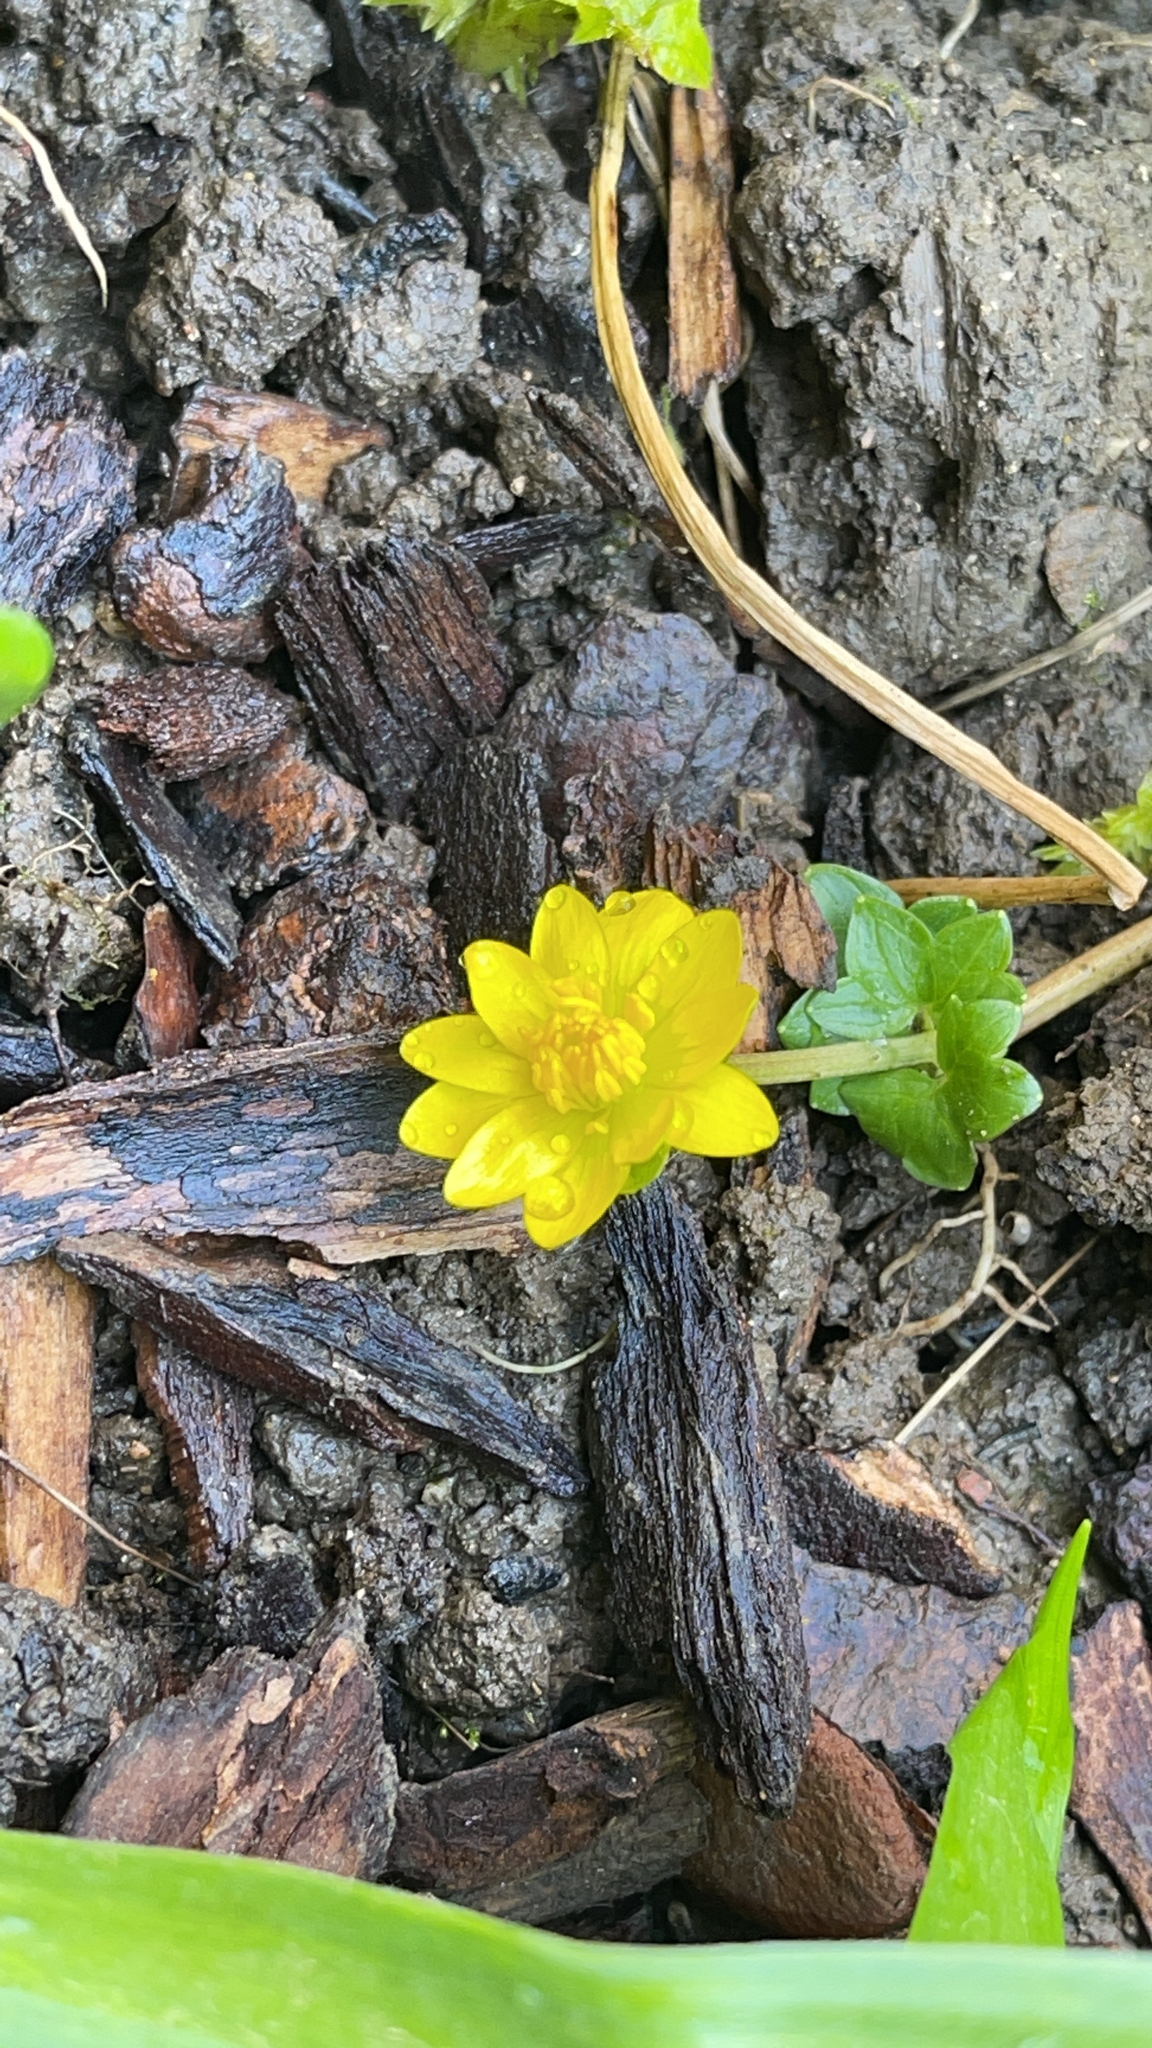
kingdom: Plantae
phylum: Tracheophyta
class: Magnoliopsida
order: Ranunculales
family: Ranunculaceae
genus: Ficaria
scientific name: Ficaria verna
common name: Lesser celandine
